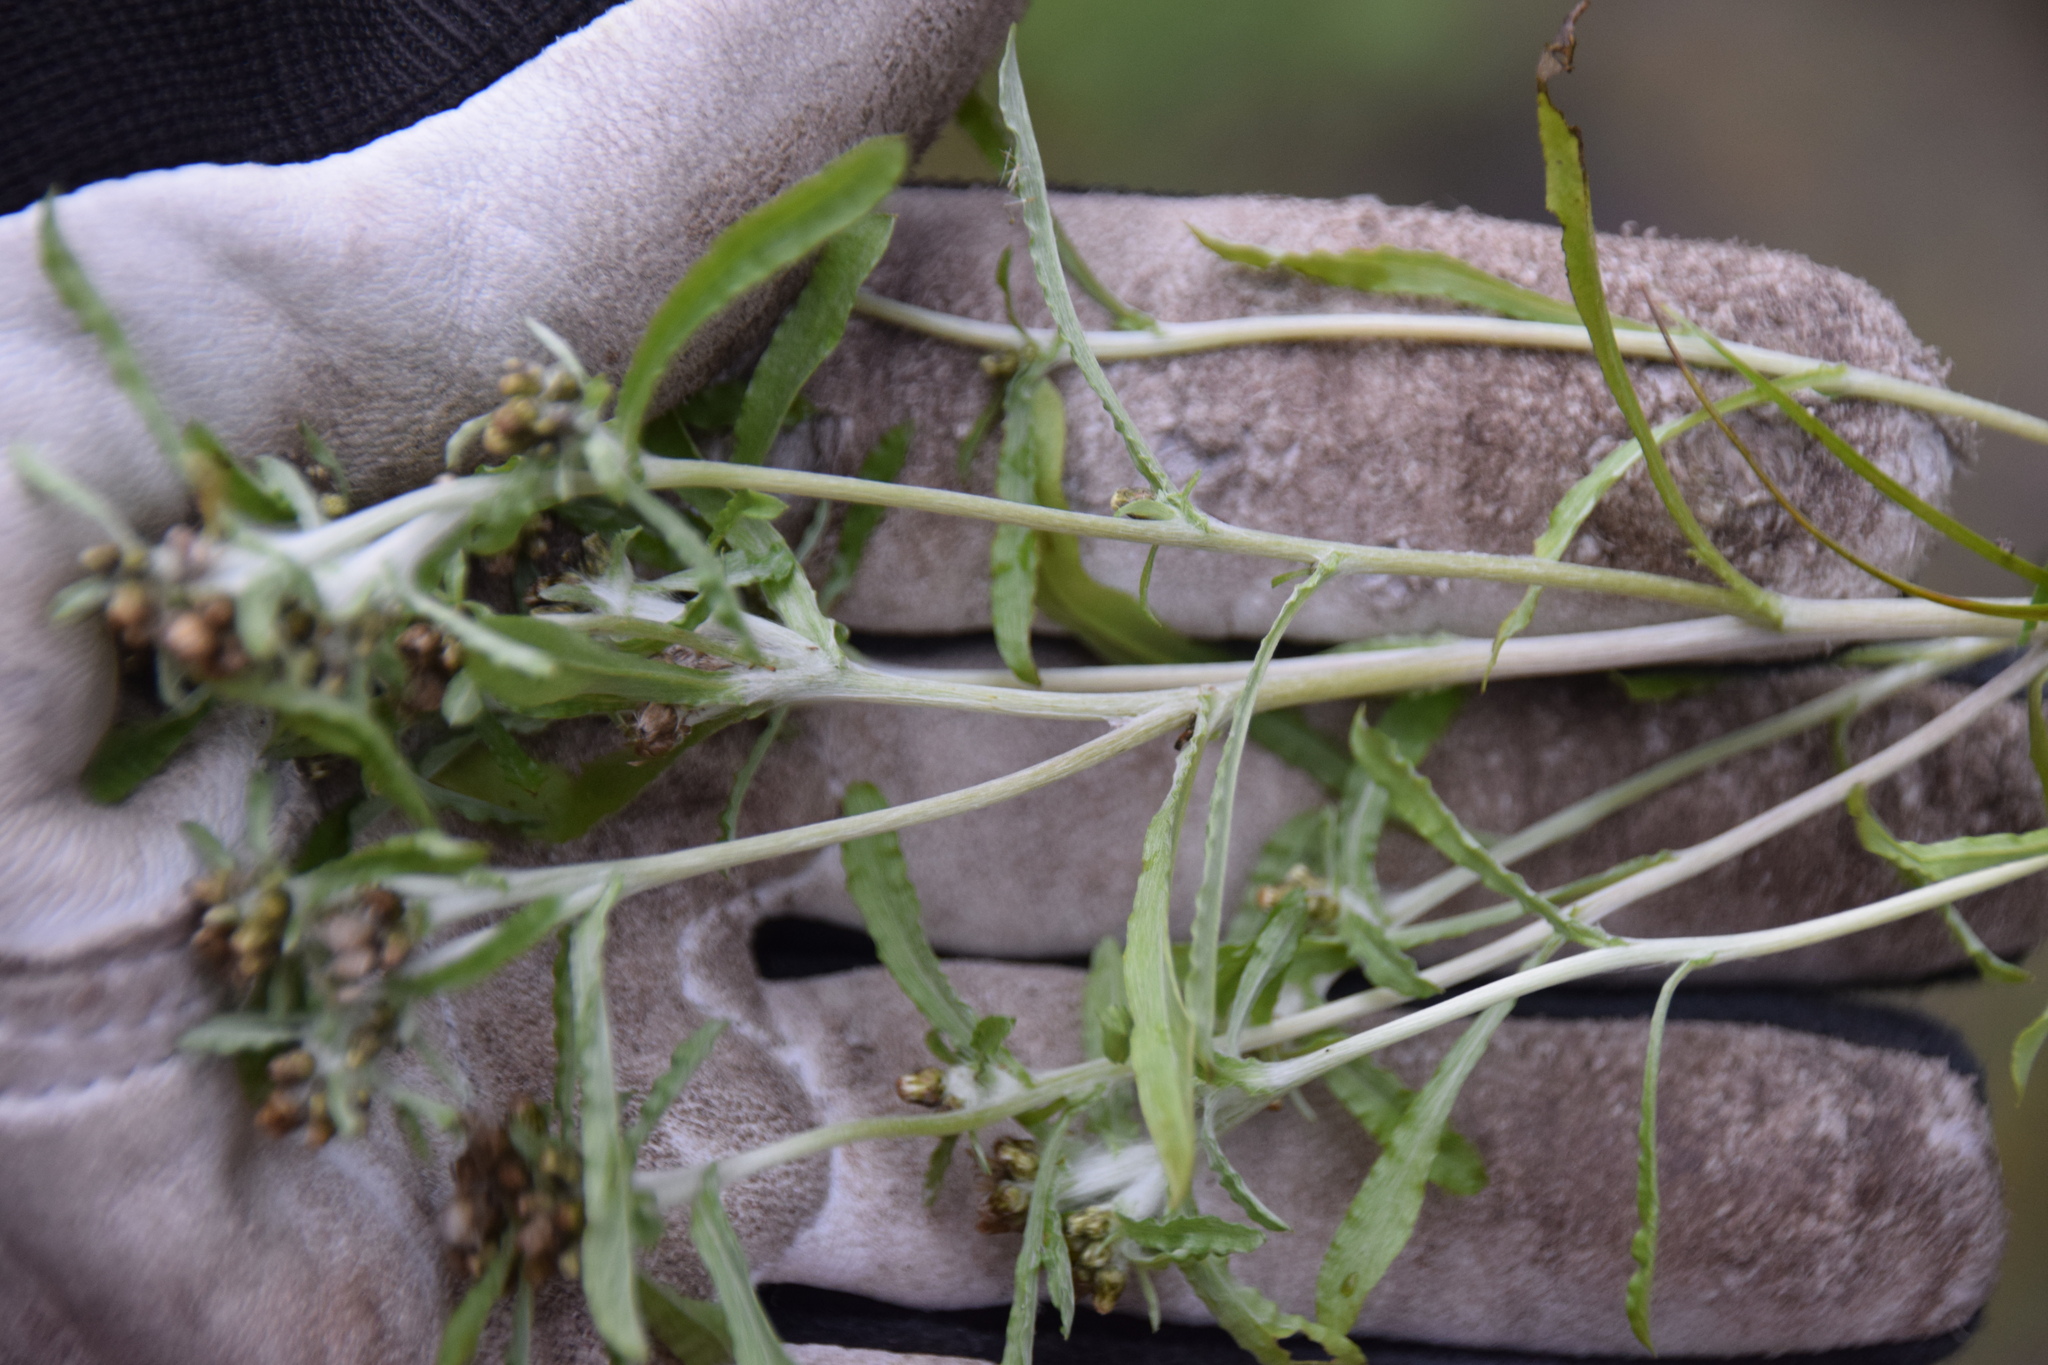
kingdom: Plantae
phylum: Tracheophyta
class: Magnoliopsida
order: Asterales
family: Asteraceae
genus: Gnaphalium
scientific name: Gnaphalium uliginosum
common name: Marsh cudweed
